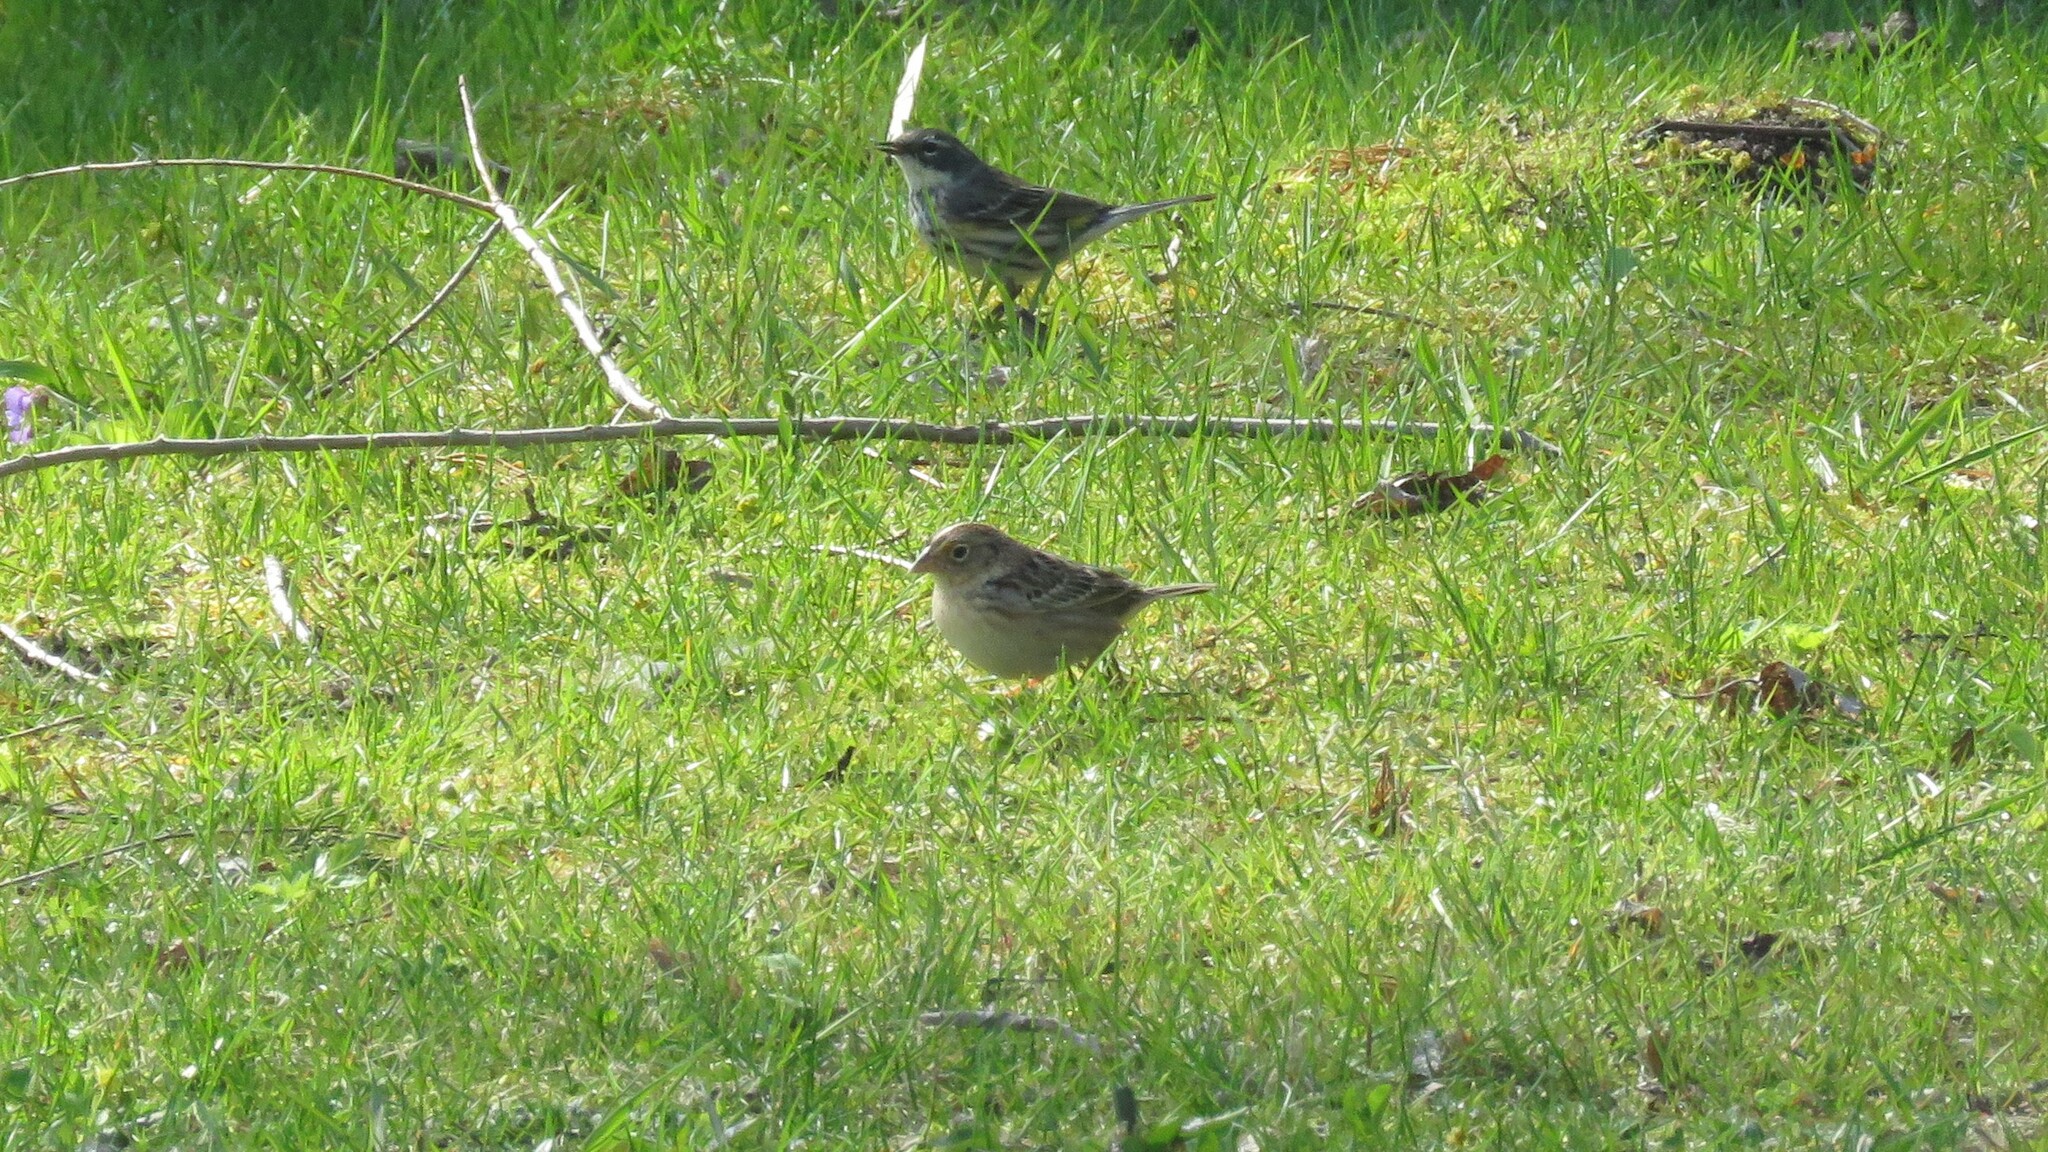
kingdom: Animalia
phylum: Chordata
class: Aves
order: Passeriformes
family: Passerellidae
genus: Ammodramus
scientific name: Ammodramus savannarum
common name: Grasshopper sparrow
